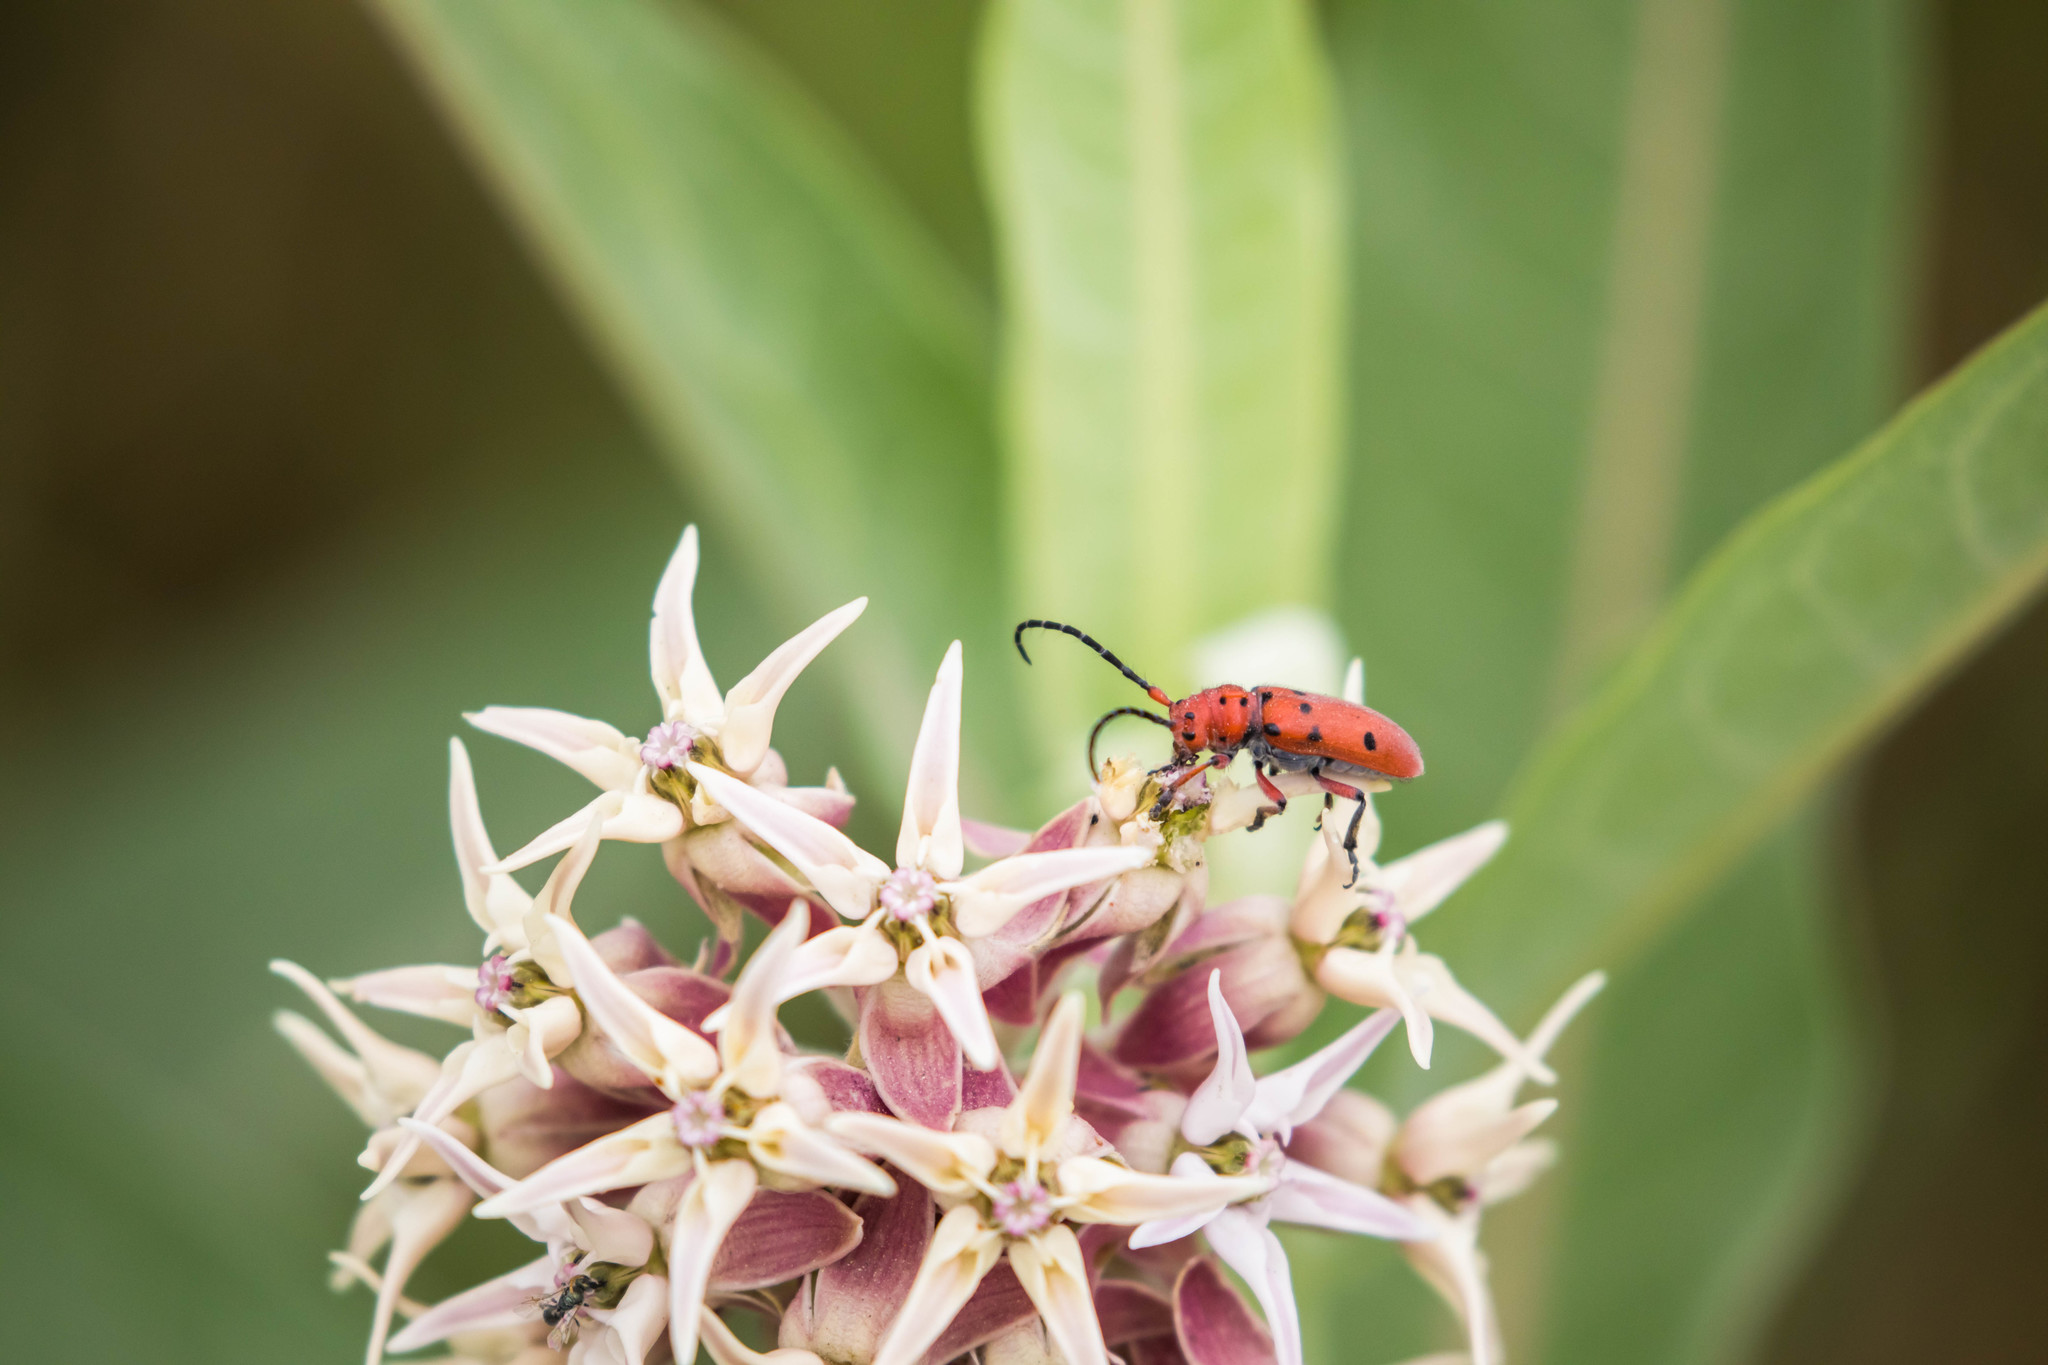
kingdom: Animalia
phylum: Arthropoda
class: Insecta
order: Coleoptera
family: Cerambycidae
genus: Tetraopes
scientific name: Tetraopes femoratus
